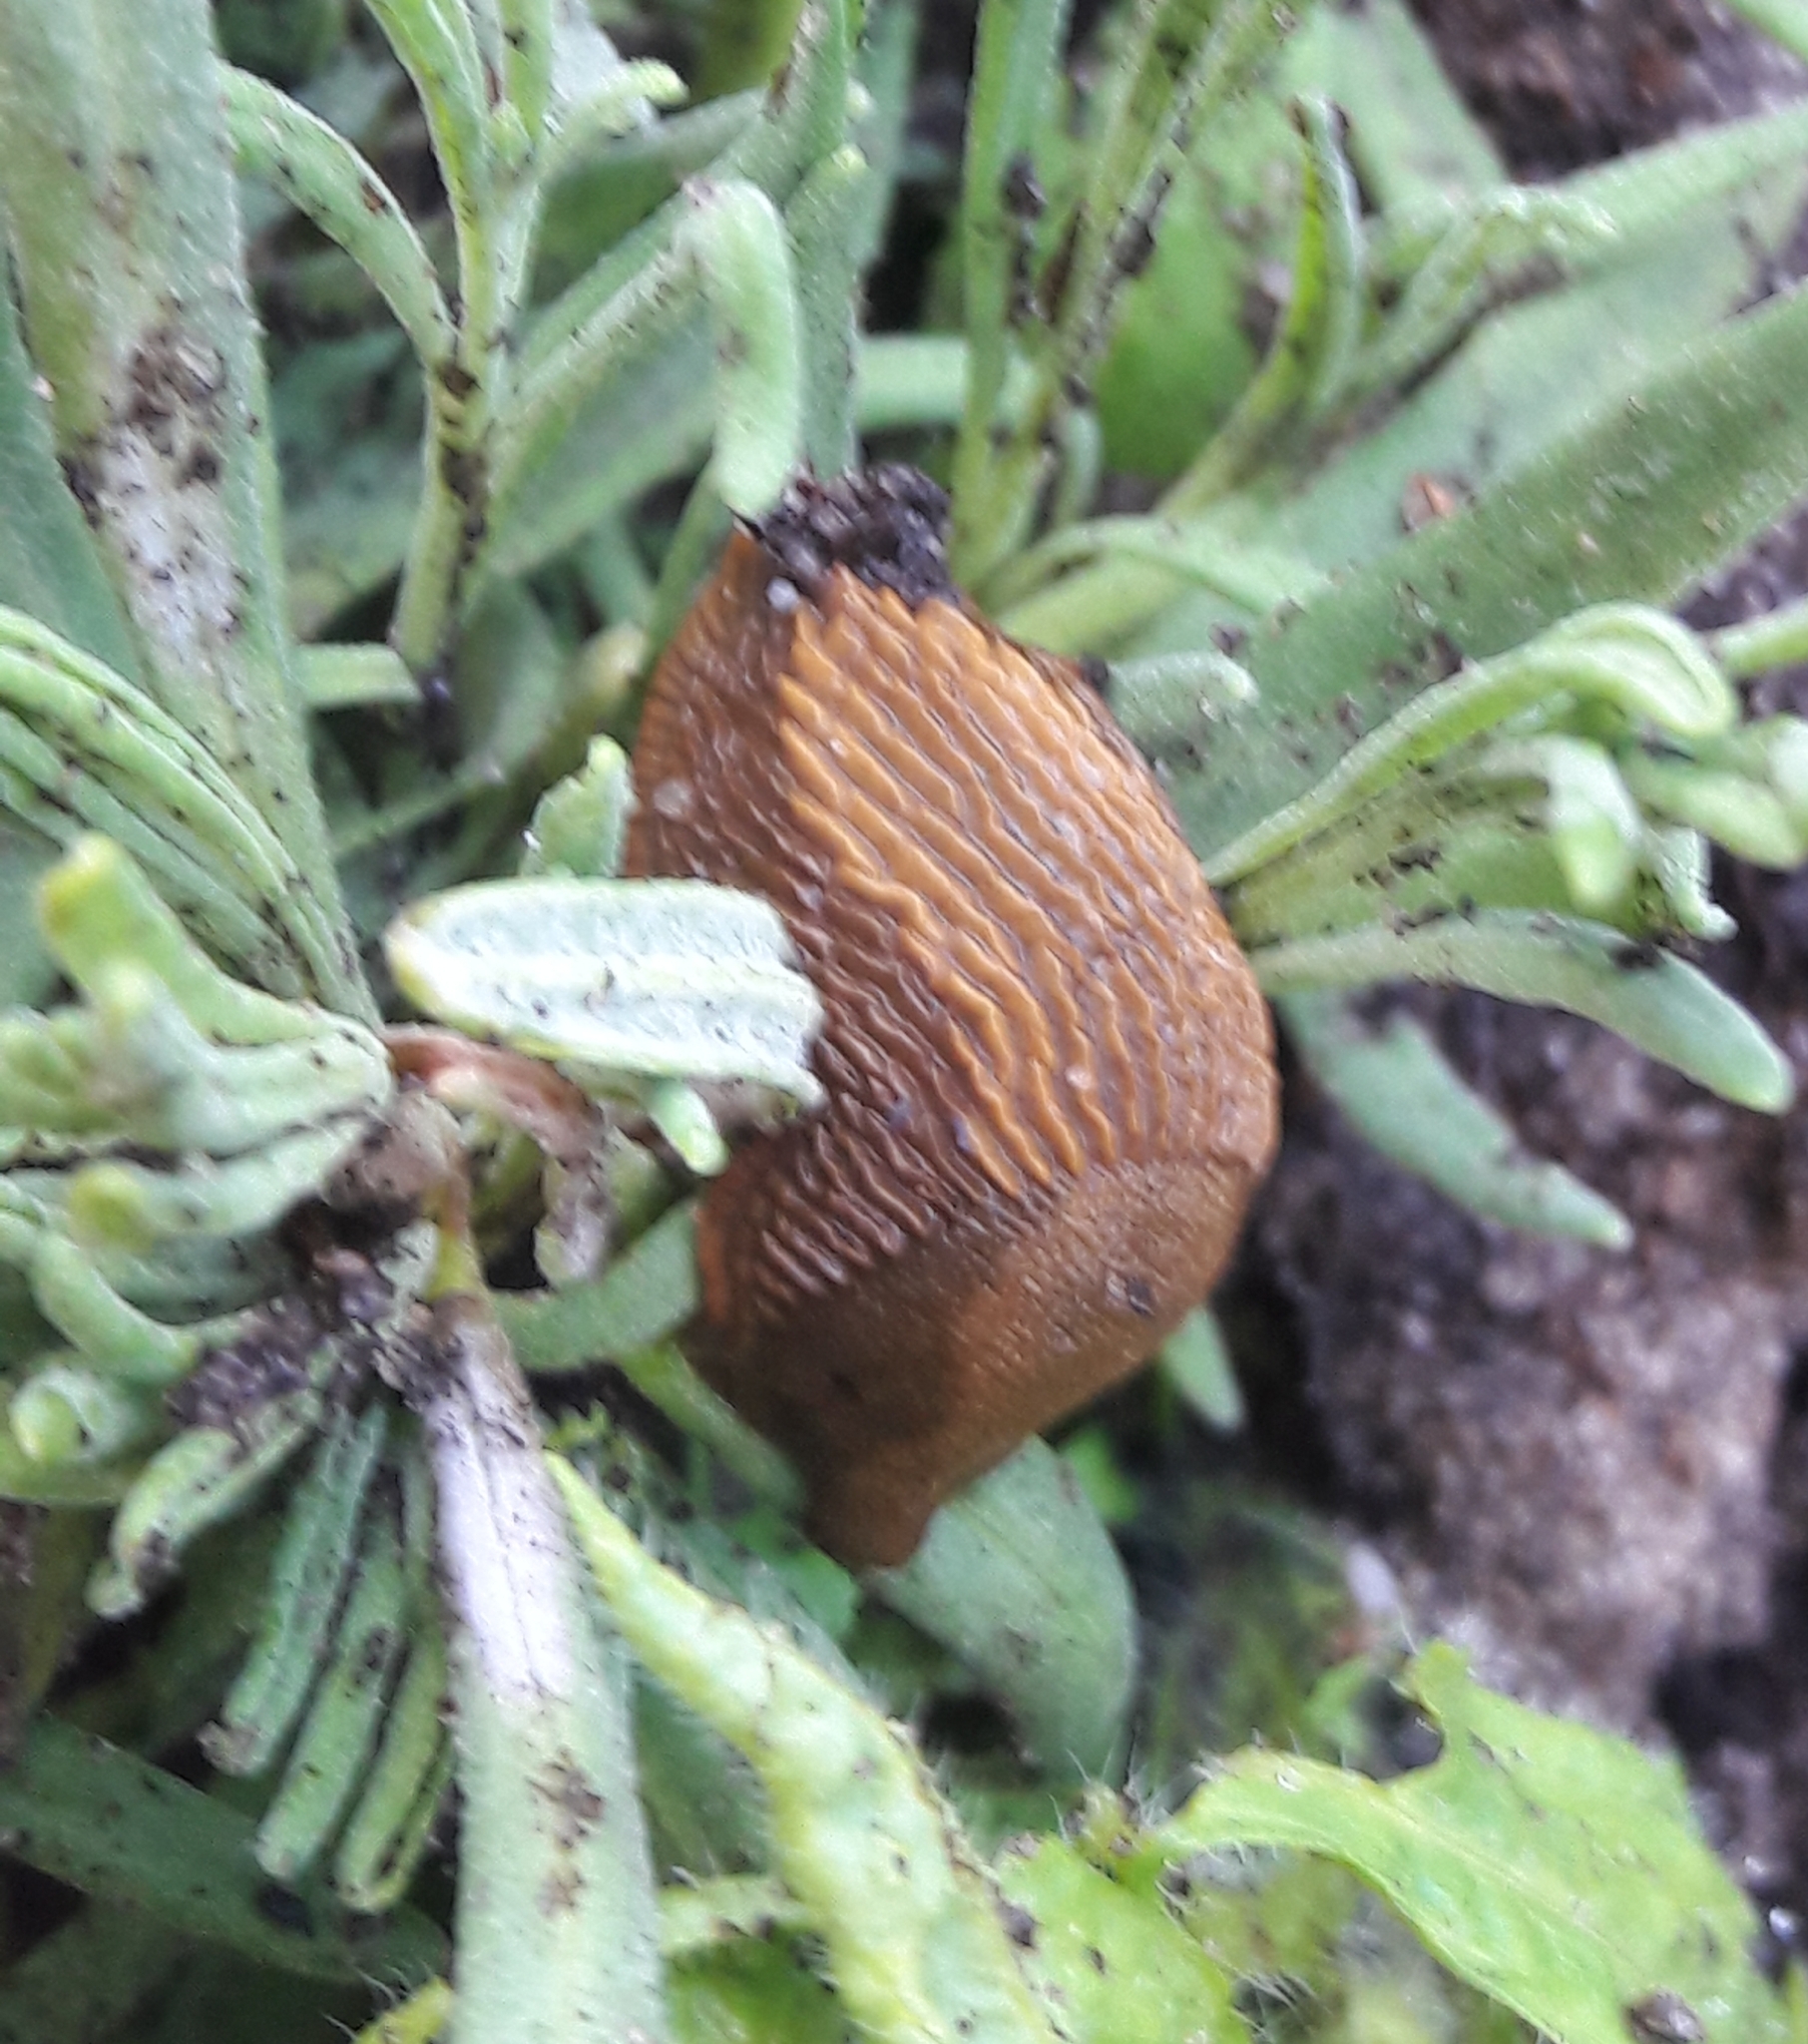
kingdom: Animalia
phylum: Mollusca
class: Gastropoda
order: Stylommatophora
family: Arionidae
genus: Arion
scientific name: Arion vulgaris
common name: Lusitanian slug
